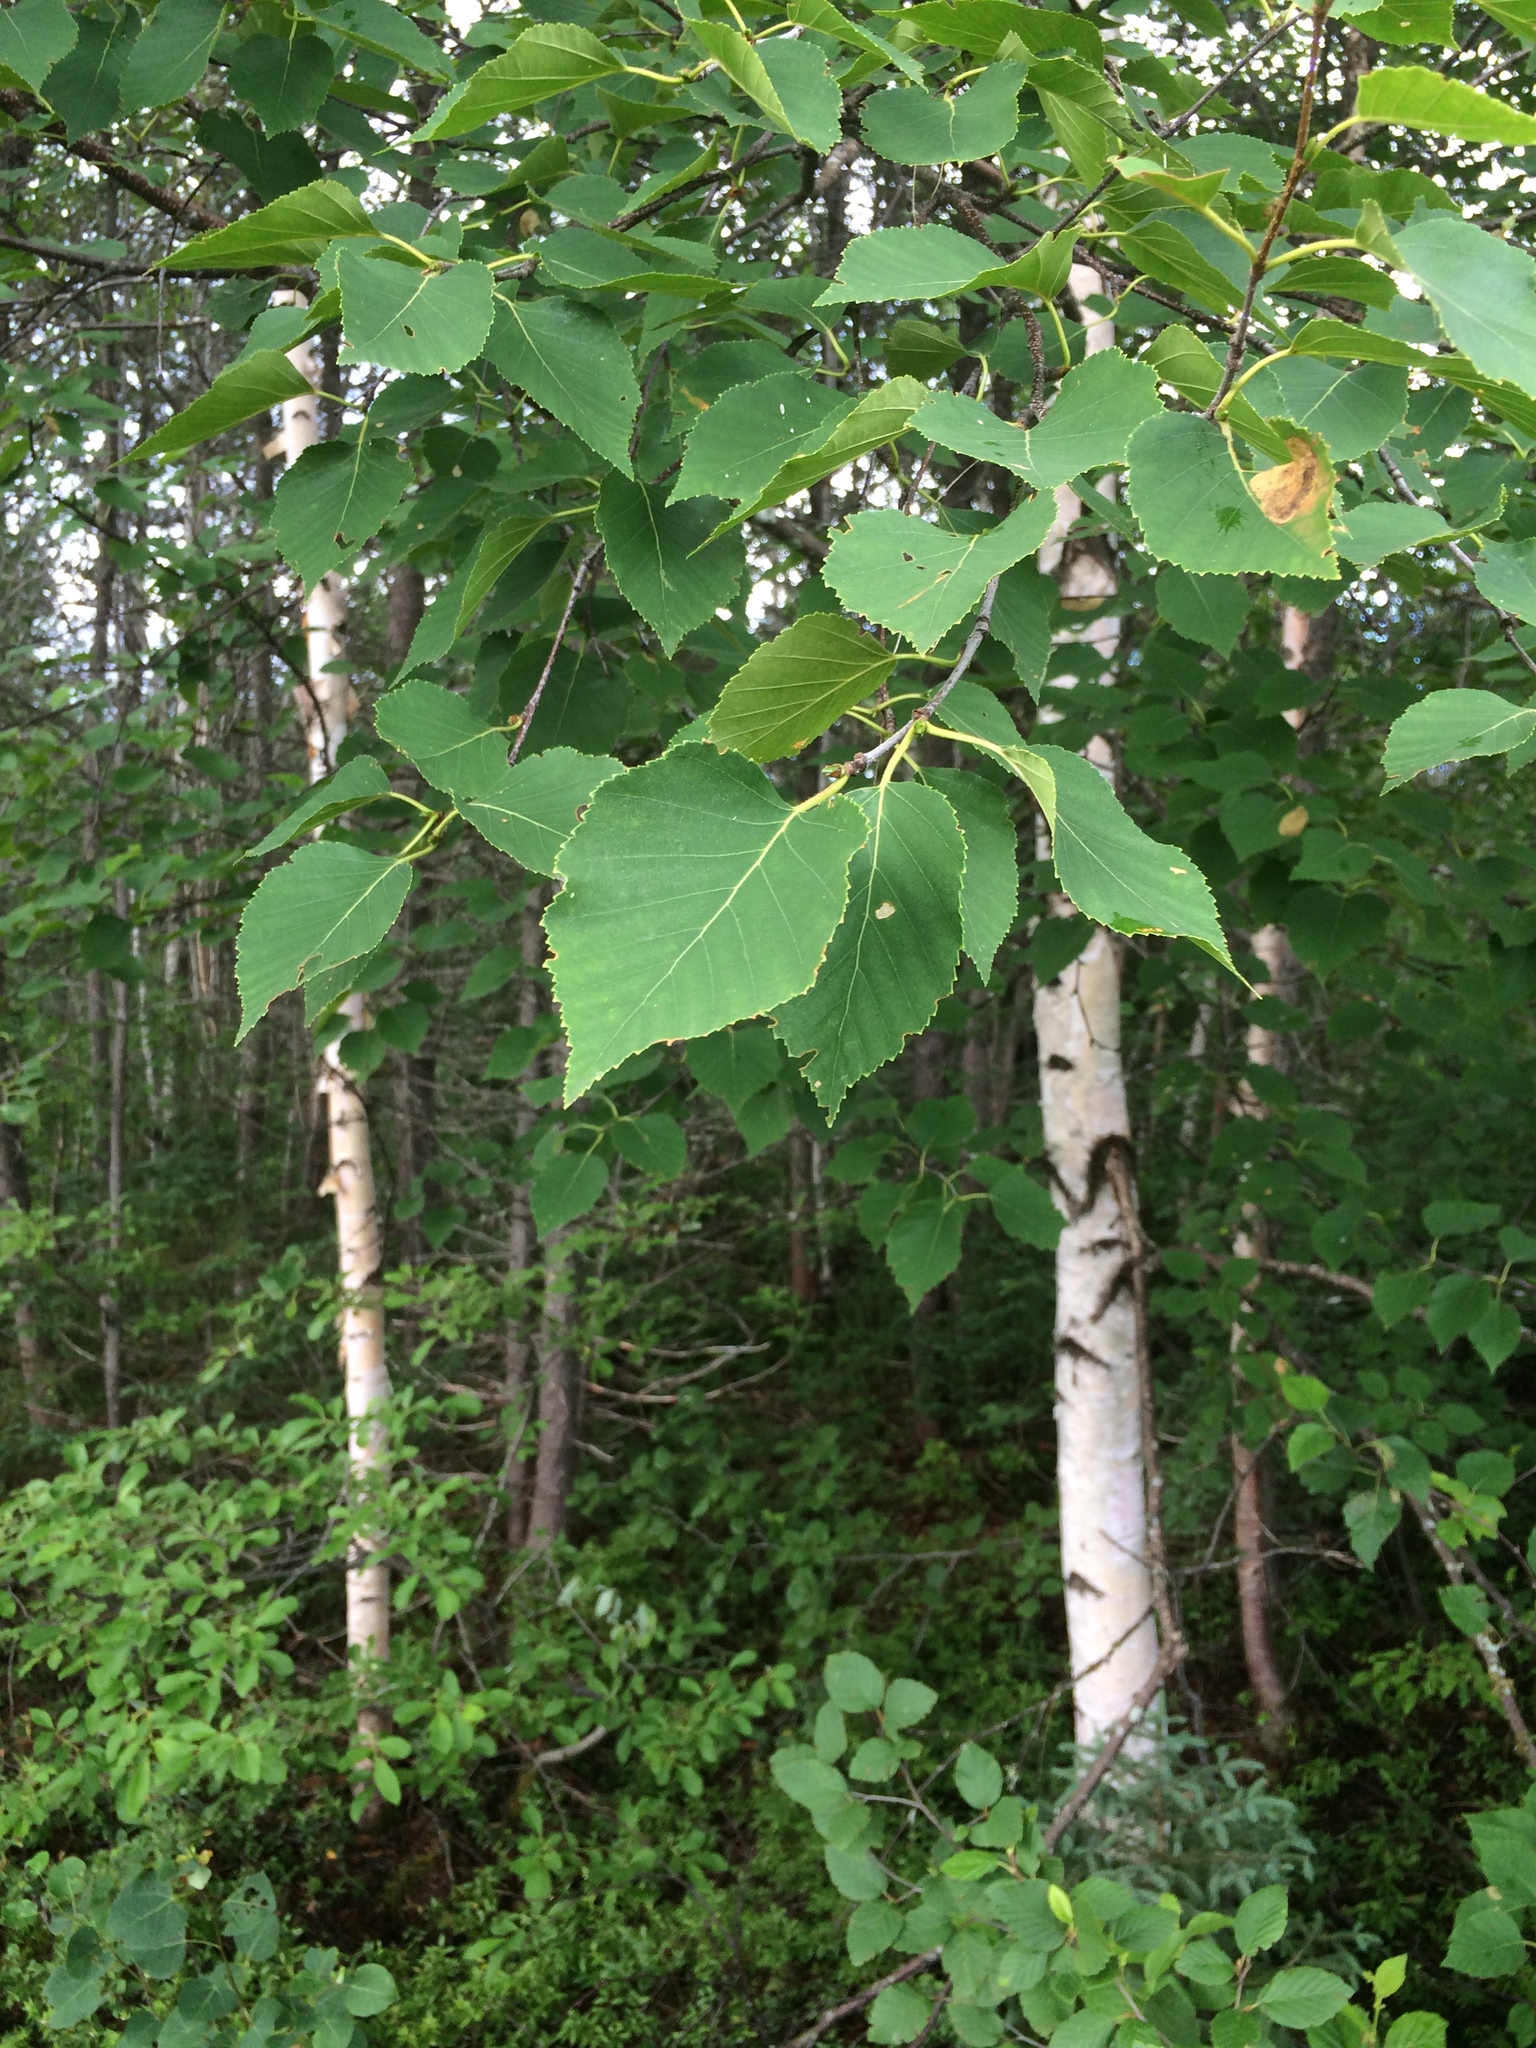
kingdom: Plantae
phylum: Tracheophyta
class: Magnoliopsida
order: Fagales
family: Betulaceae
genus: Betula
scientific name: Betula papyrifera
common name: Paper birch
